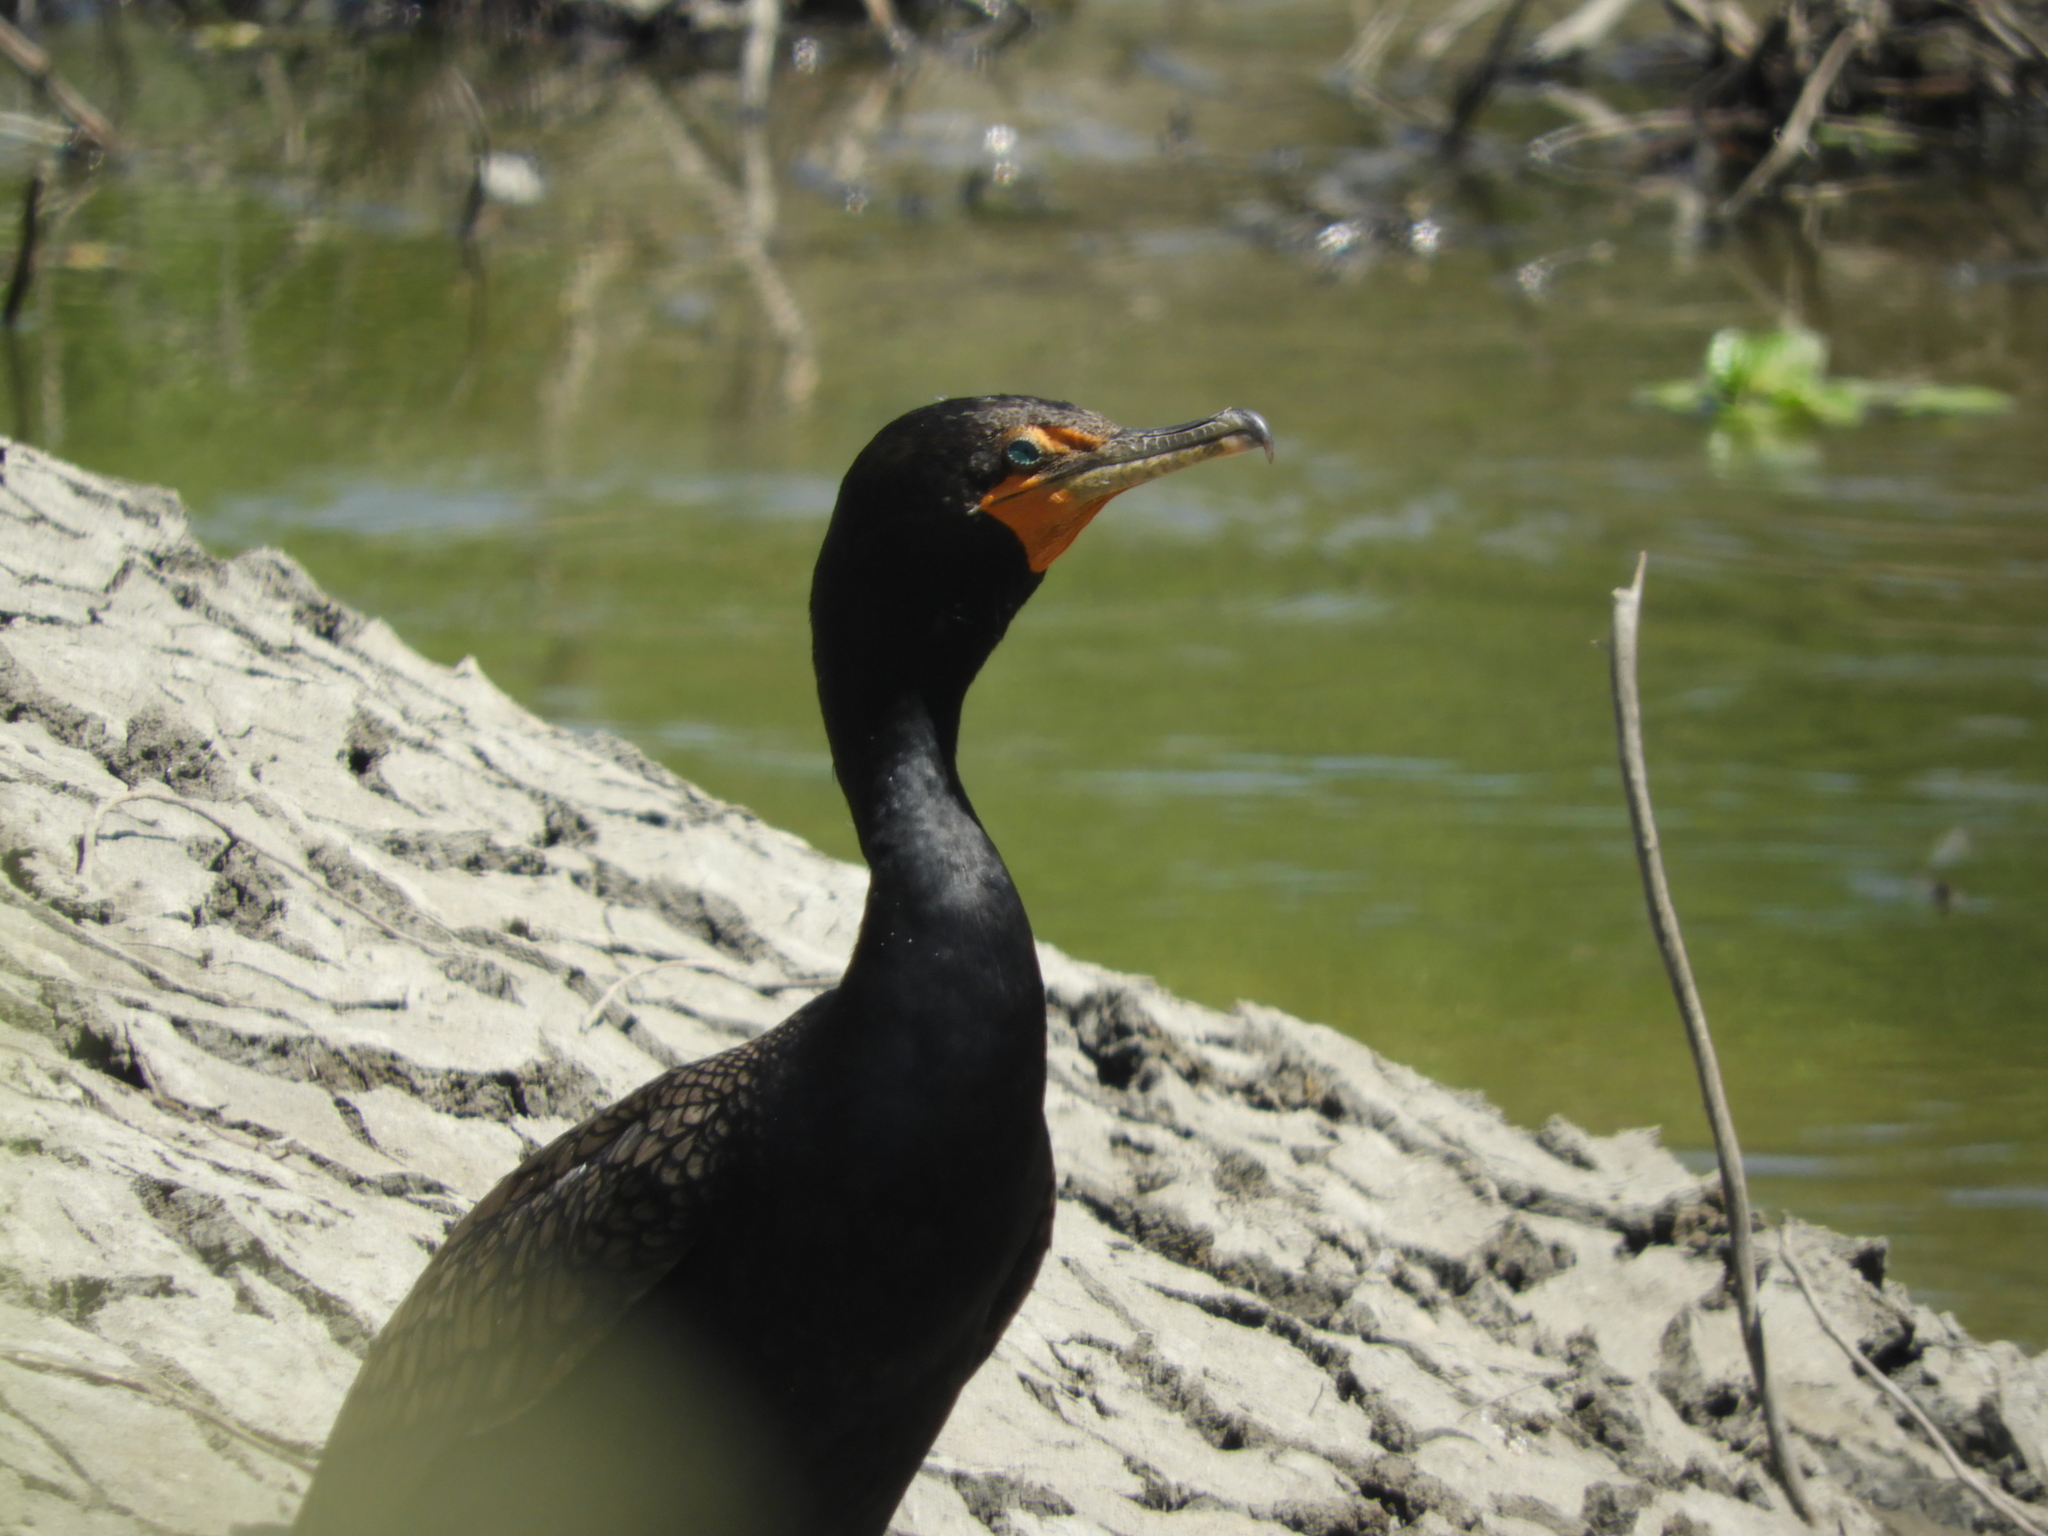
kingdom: Animalia
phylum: Chordata
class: Aves
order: Suliformes
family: Phalacrocoracidae
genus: Phalacrocorax
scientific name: Phalacrocorax auritus
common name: Double-crested cormorant
